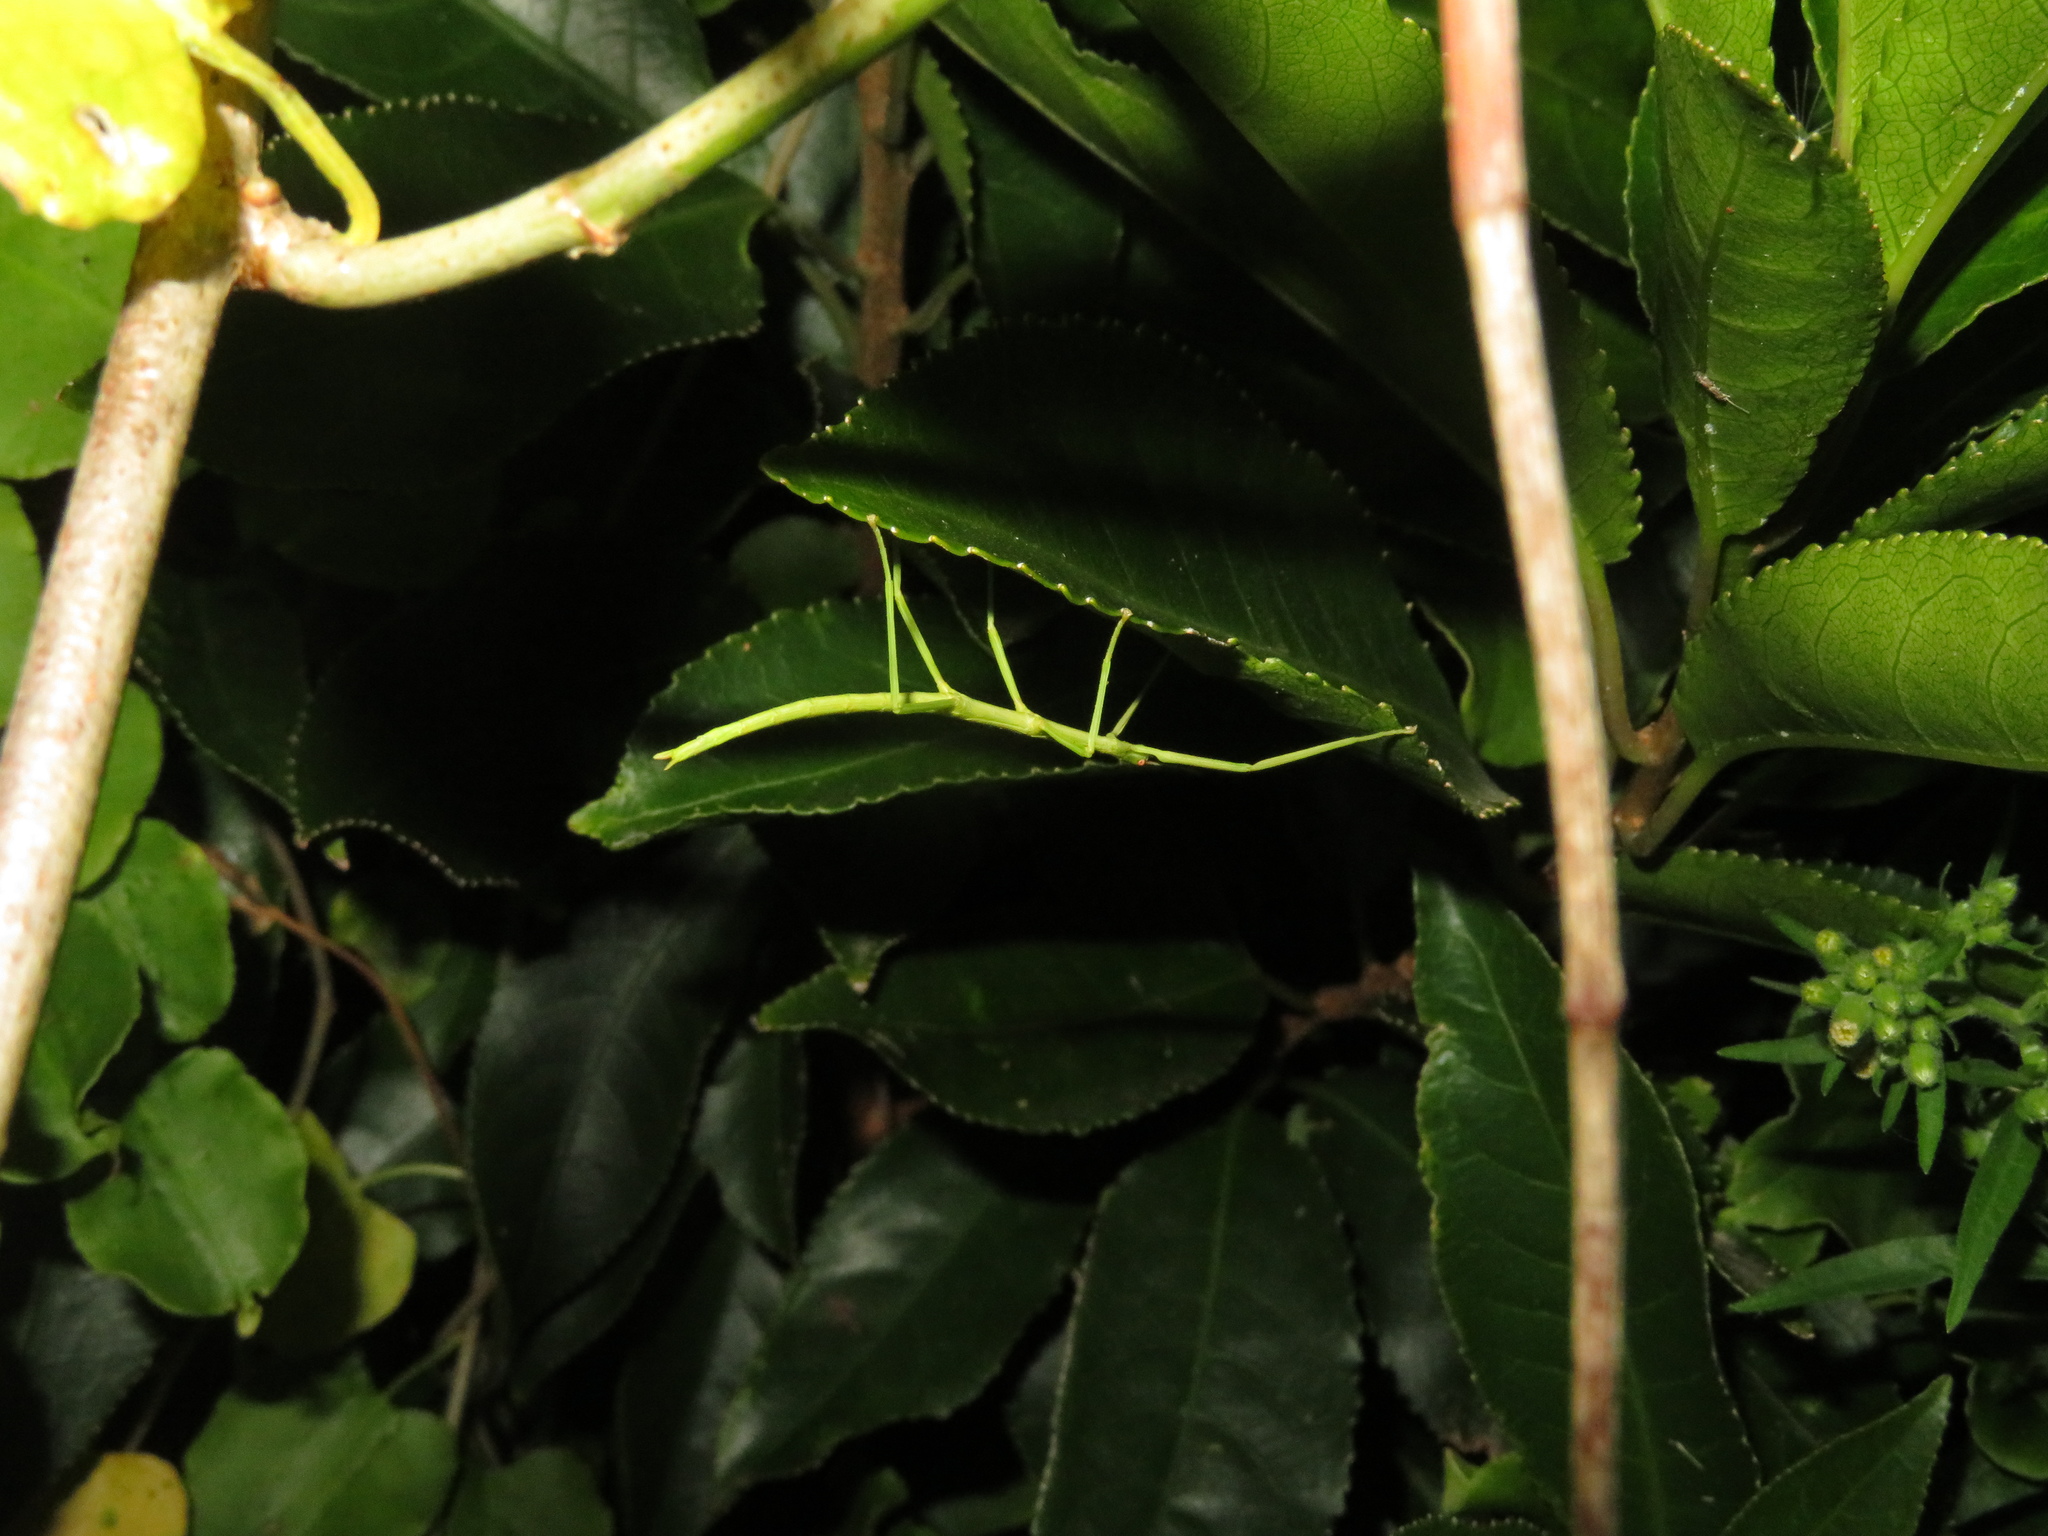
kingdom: Animalia
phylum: Arthropoda
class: Insecta
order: Phasmida
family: Phasmatidae
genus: Clitarchus
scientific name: Clitarchus hookeri
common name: Smooth stick insect
